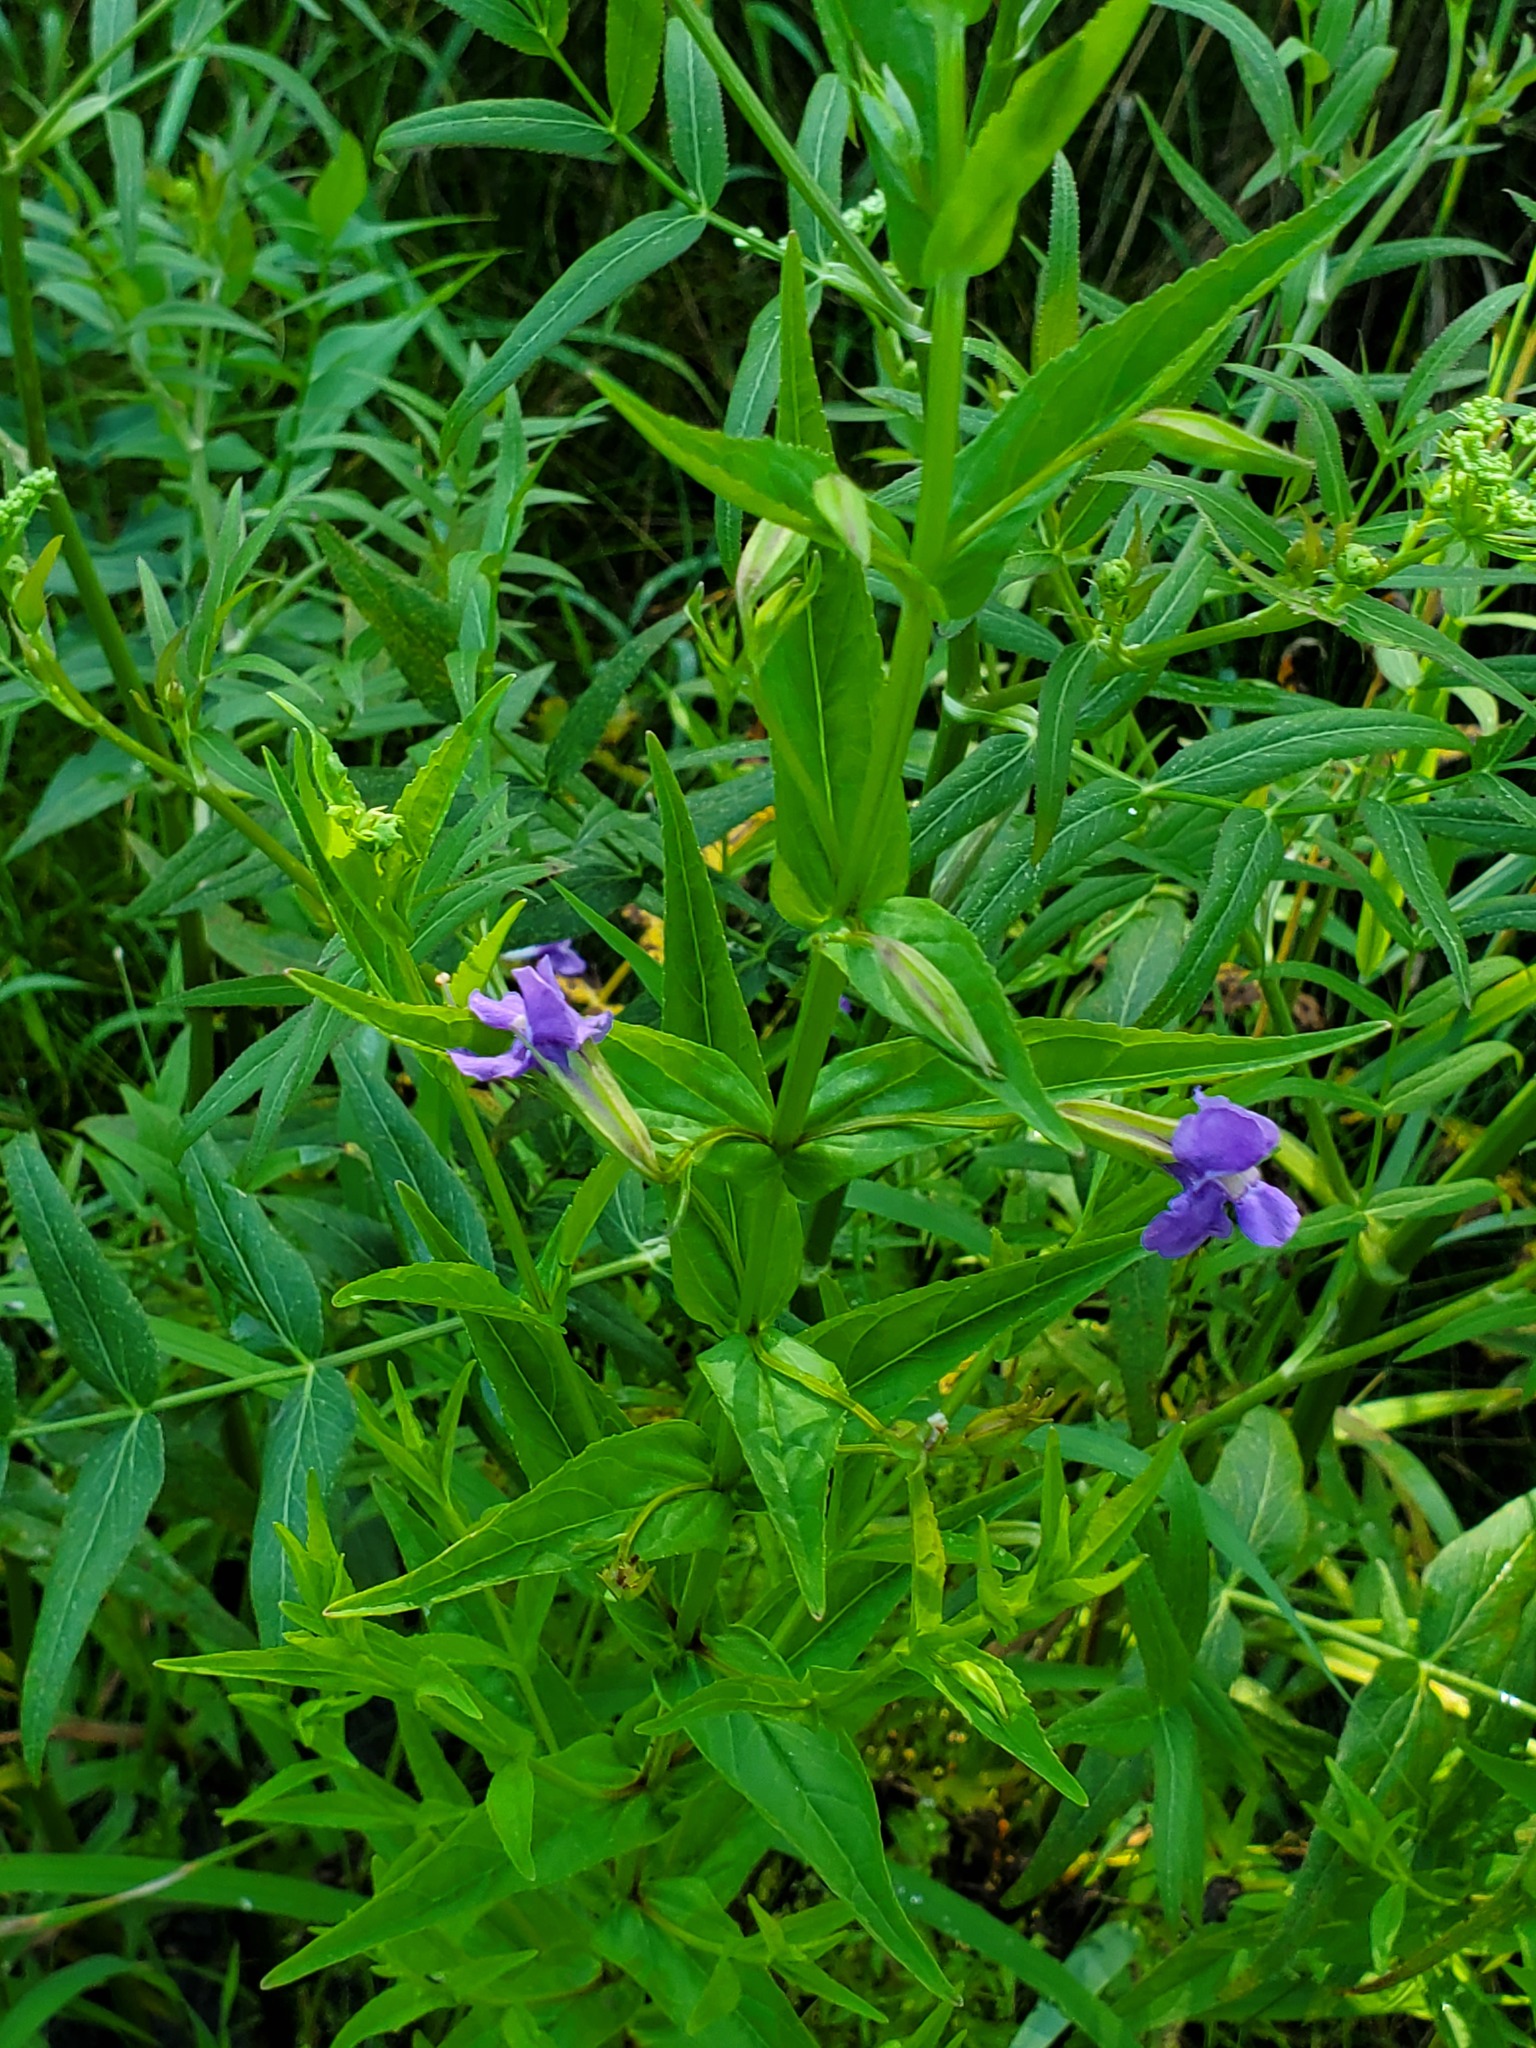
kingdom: Plantae
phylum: Tracheophyta
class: Magnoliopsida
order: Lamiales
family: Phrymaceae
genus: Mimulus
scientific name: Mimulus ringens
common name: Allegheny monkeyflower
